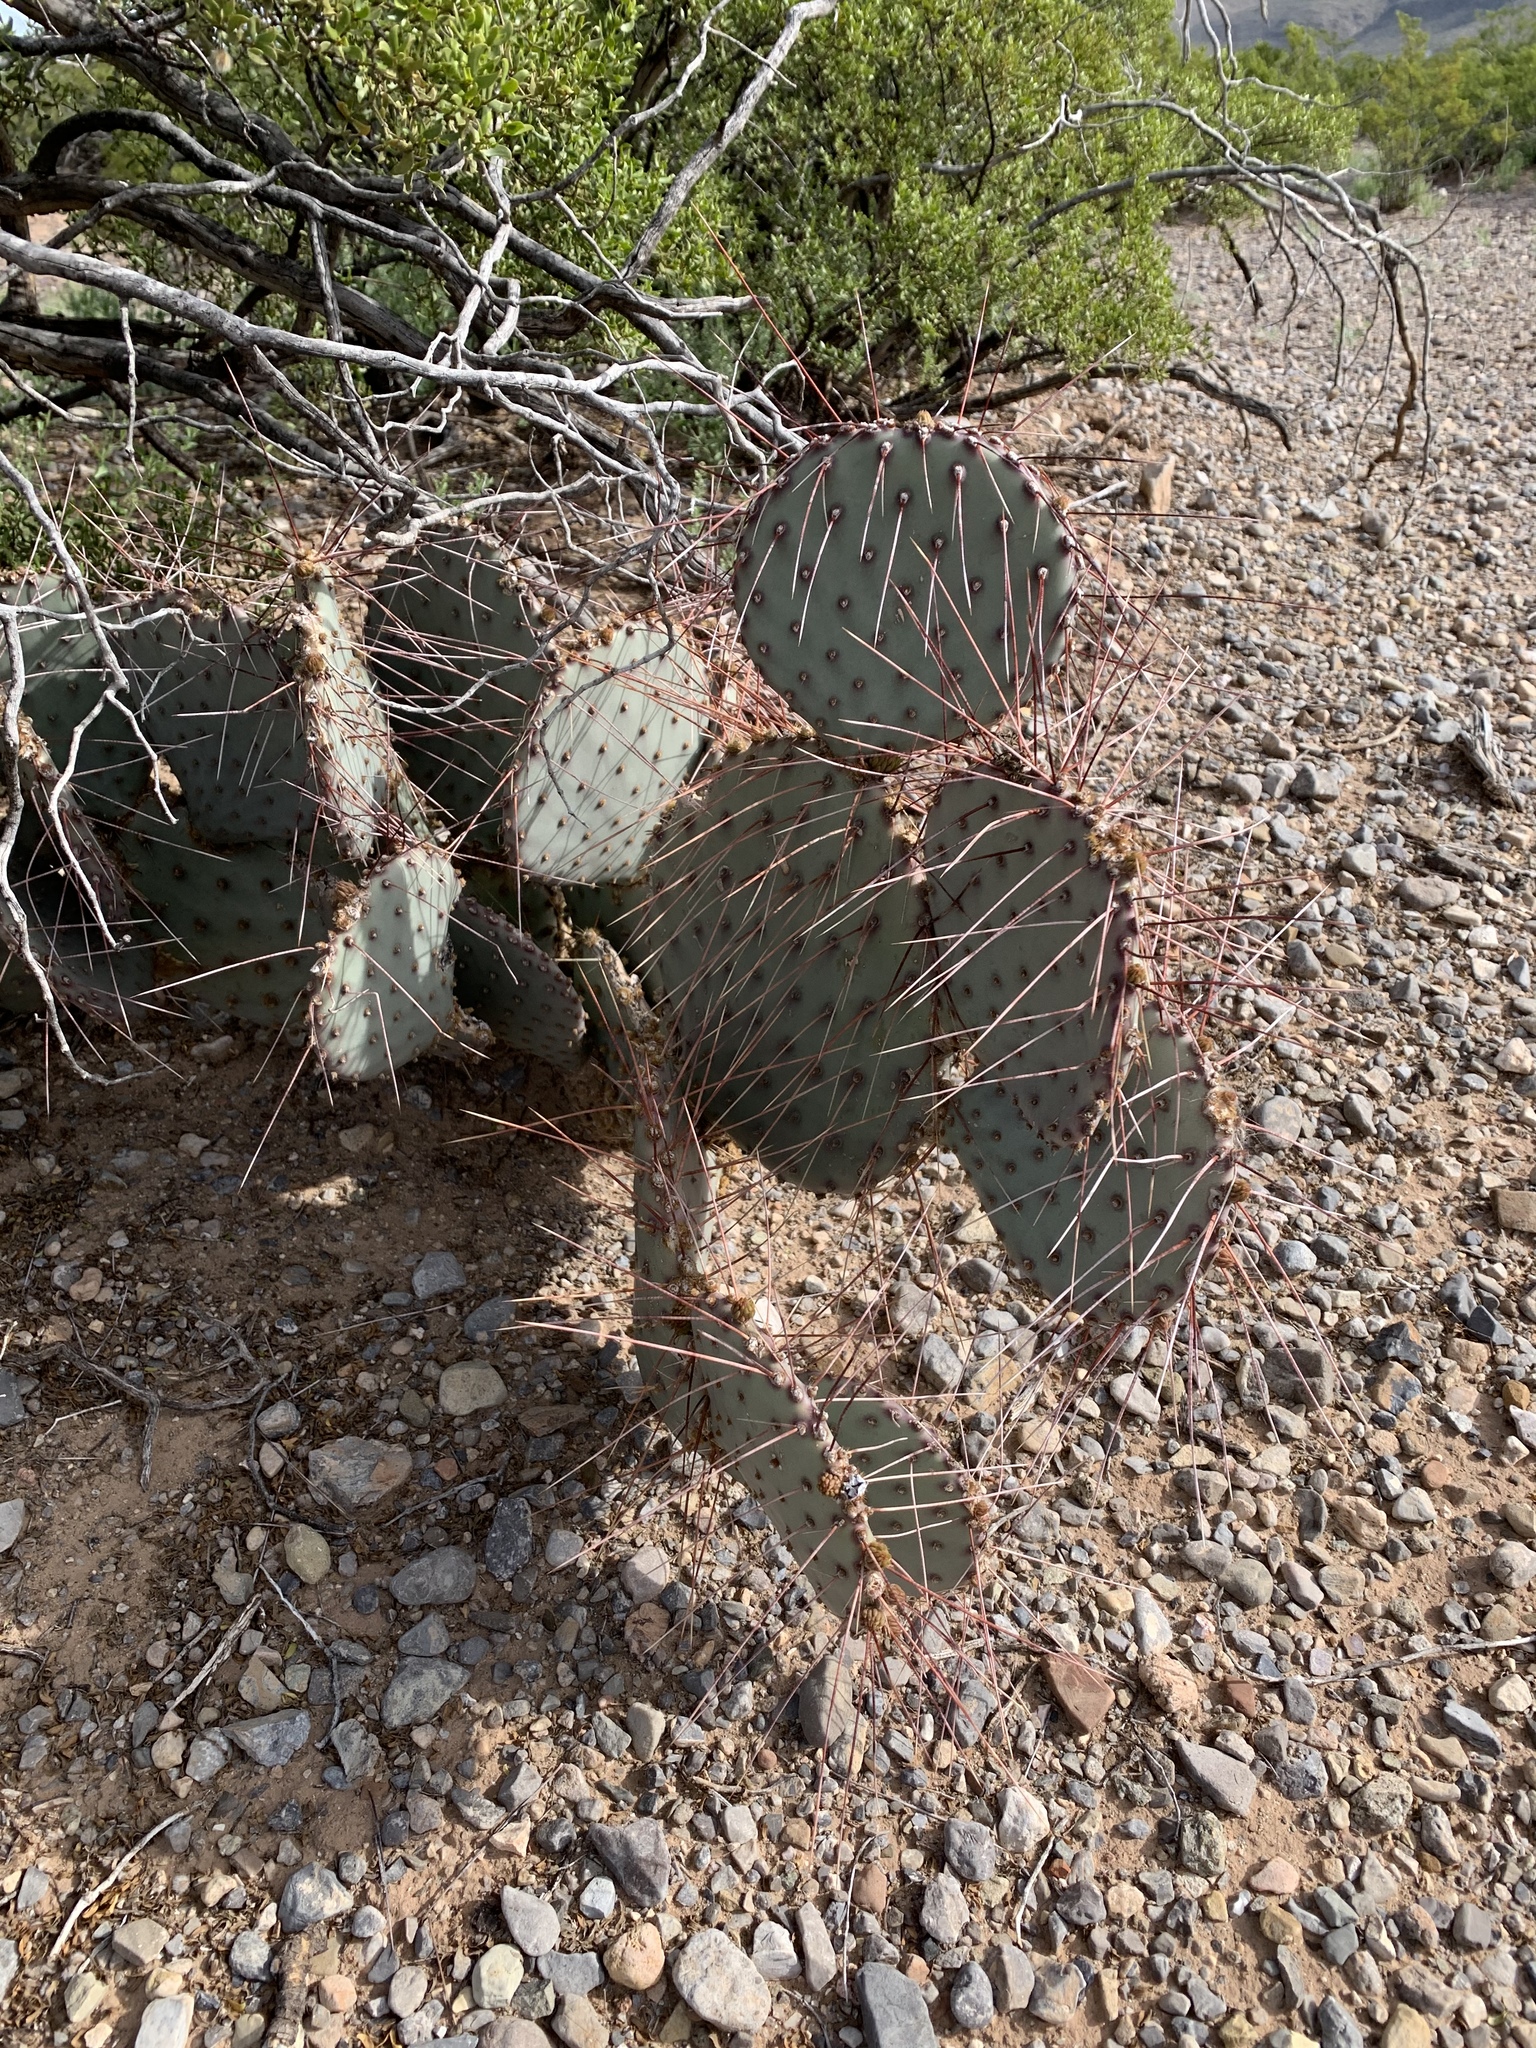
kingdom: Plantae
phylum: Tracheophyta
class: Magnoliopsida
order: Caryophyllales
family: Cactaceae
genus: Opuntia
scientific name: Opuntia macrocentra
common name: Purple prickly-pear
